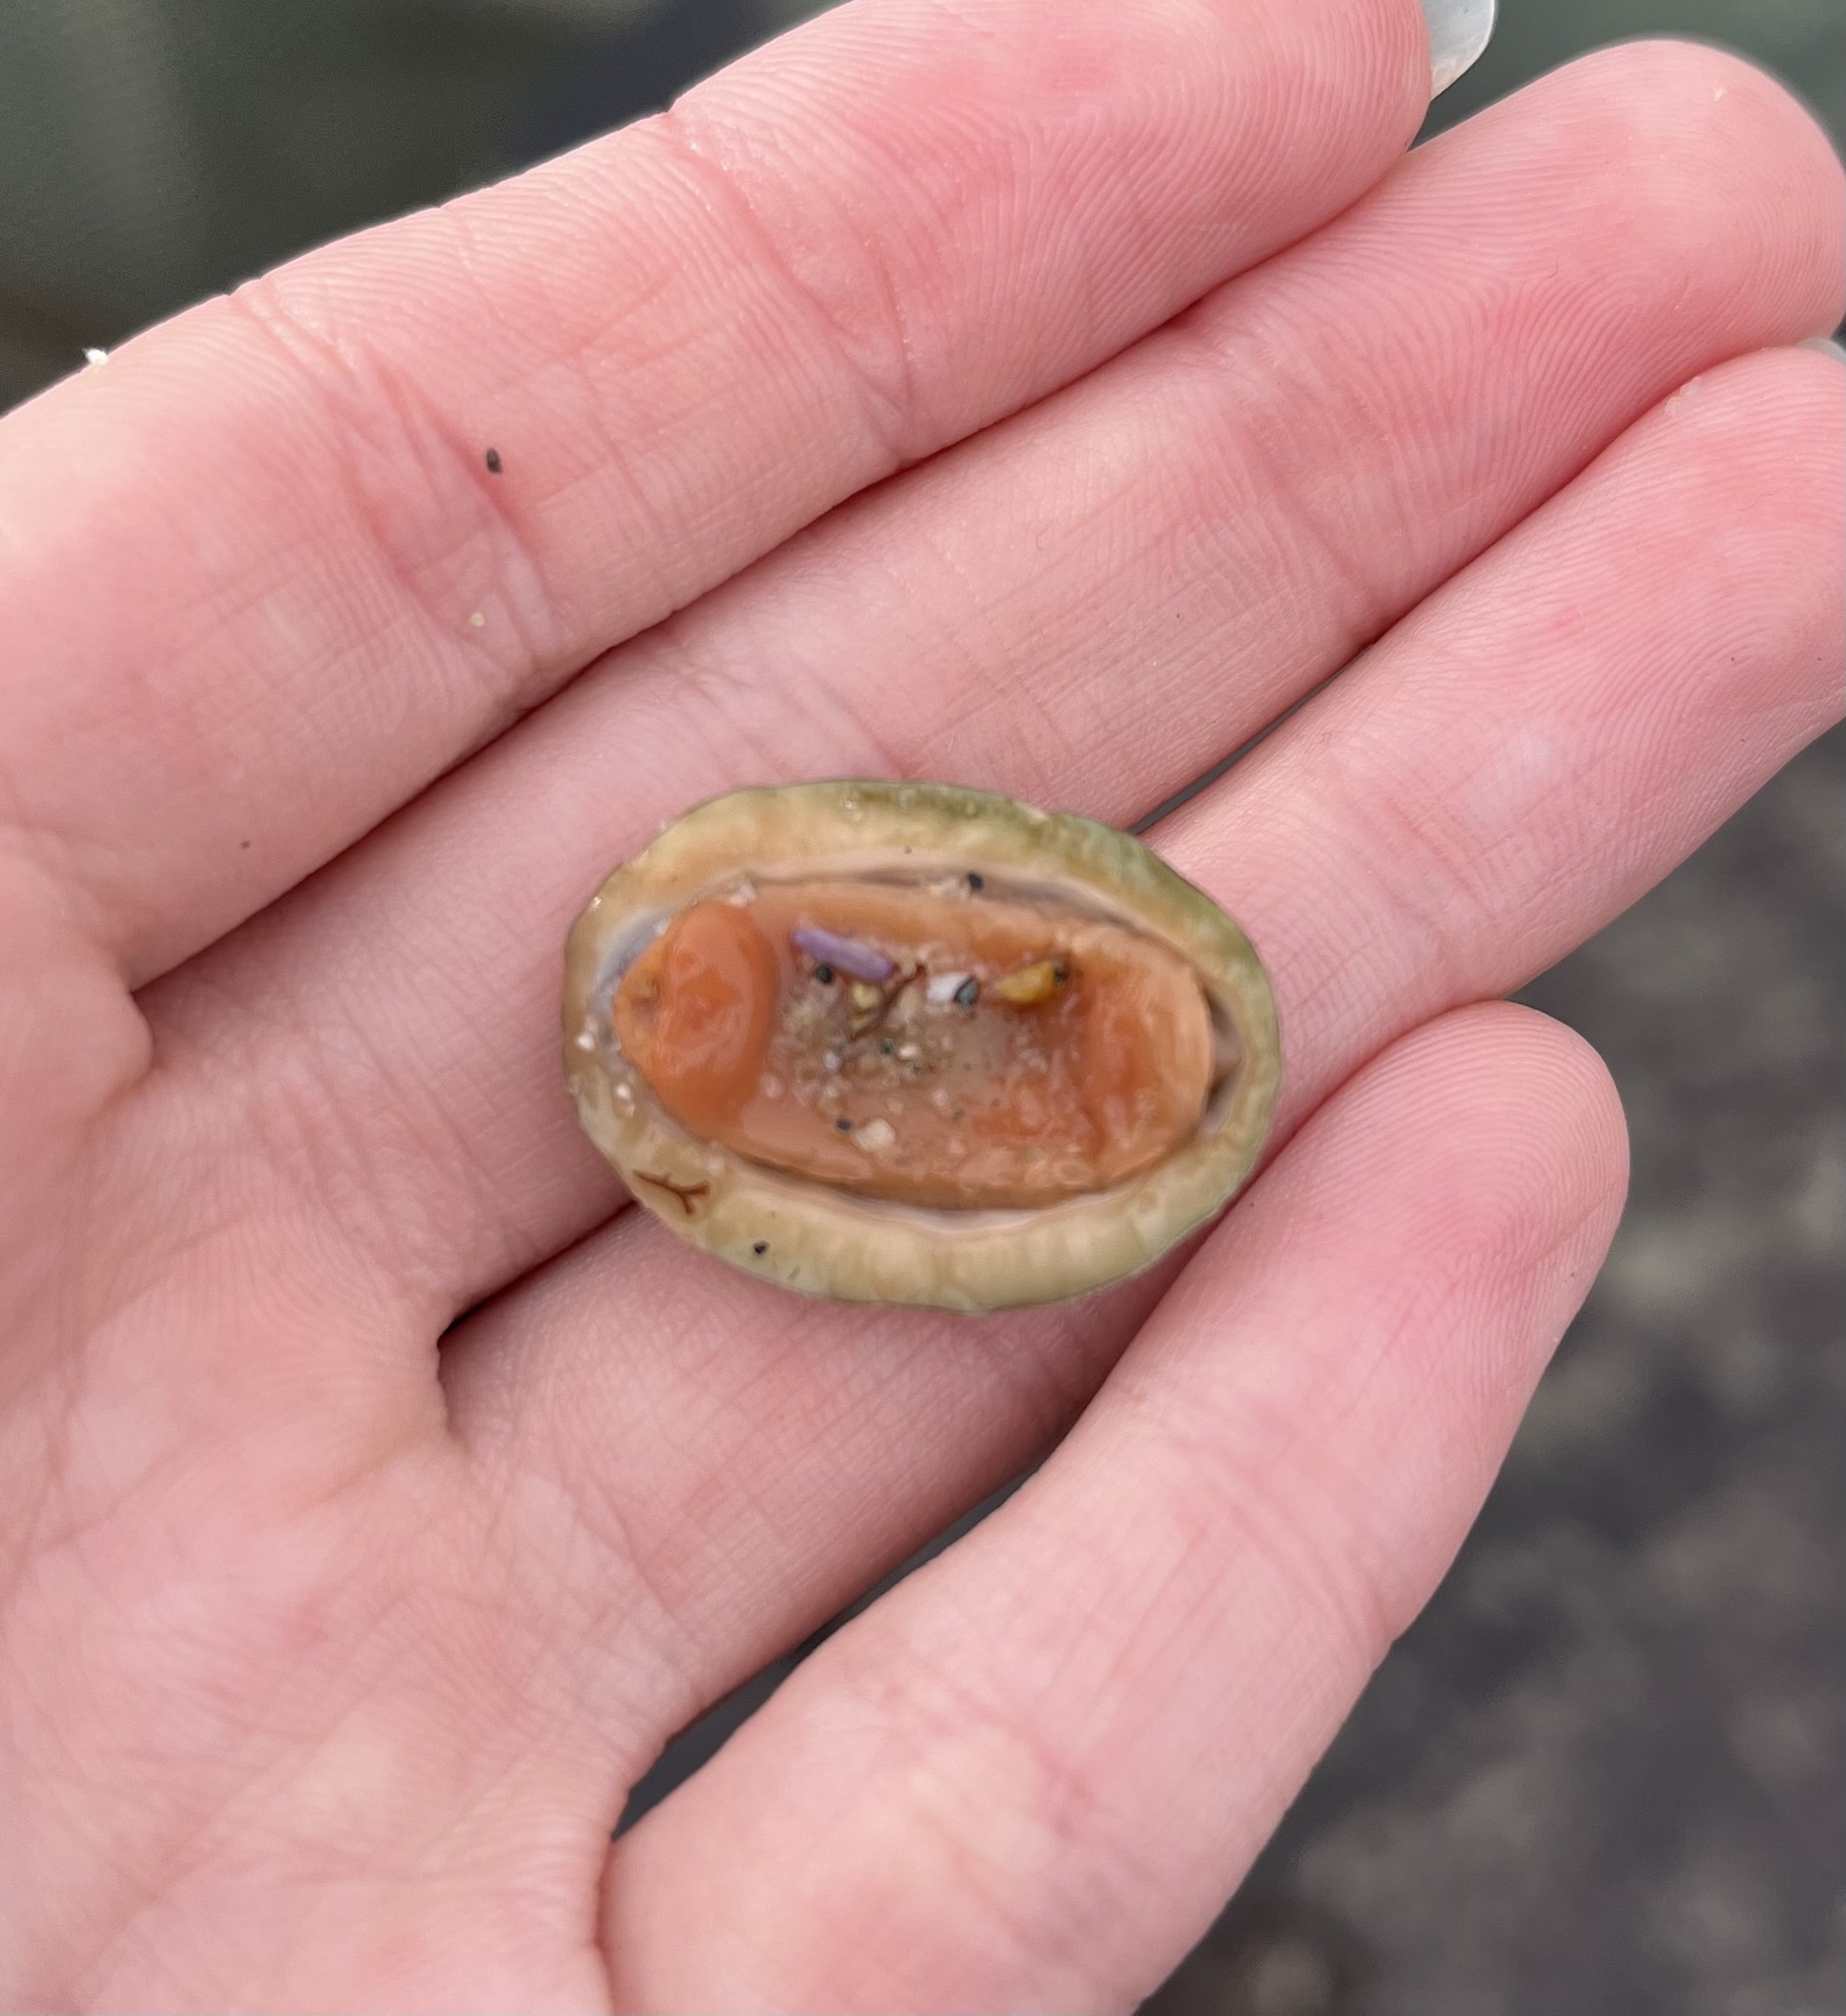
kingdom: Animalia
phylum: Mollusca
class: Polyplacophora
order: Chitonida
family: Tonicellidae
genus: Cyanoplax
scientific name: Cyanoplax hartwegii
